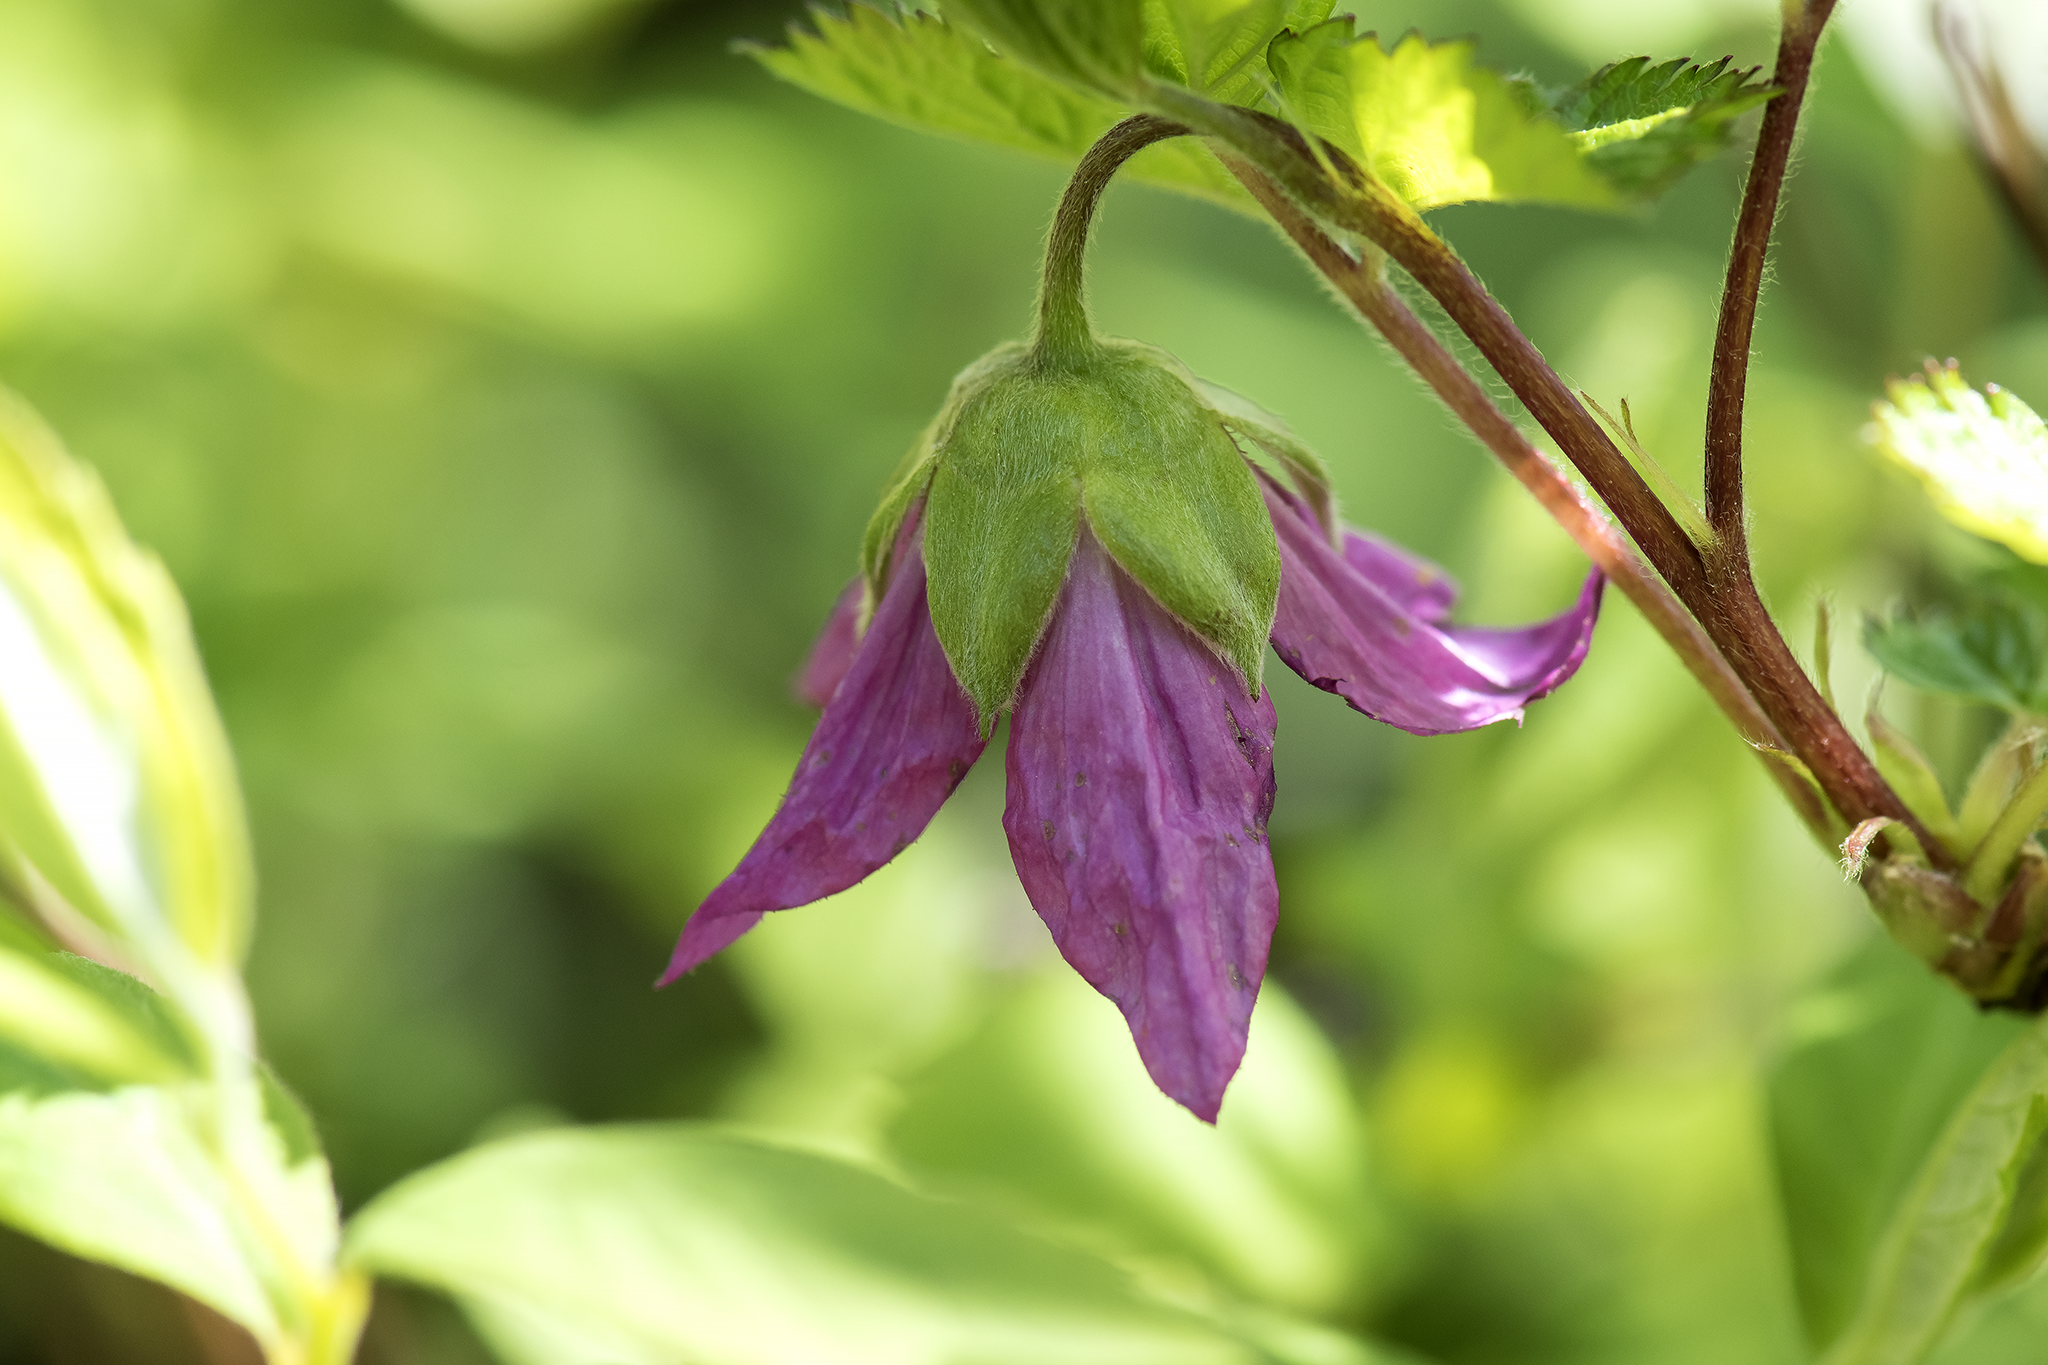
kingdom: Plantae
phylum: Tracheophyta
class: Magnoliopsida
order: Rosales
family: Rosaceae
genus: Rubus
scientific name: Rubus spectabilis
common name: Salmonberry
